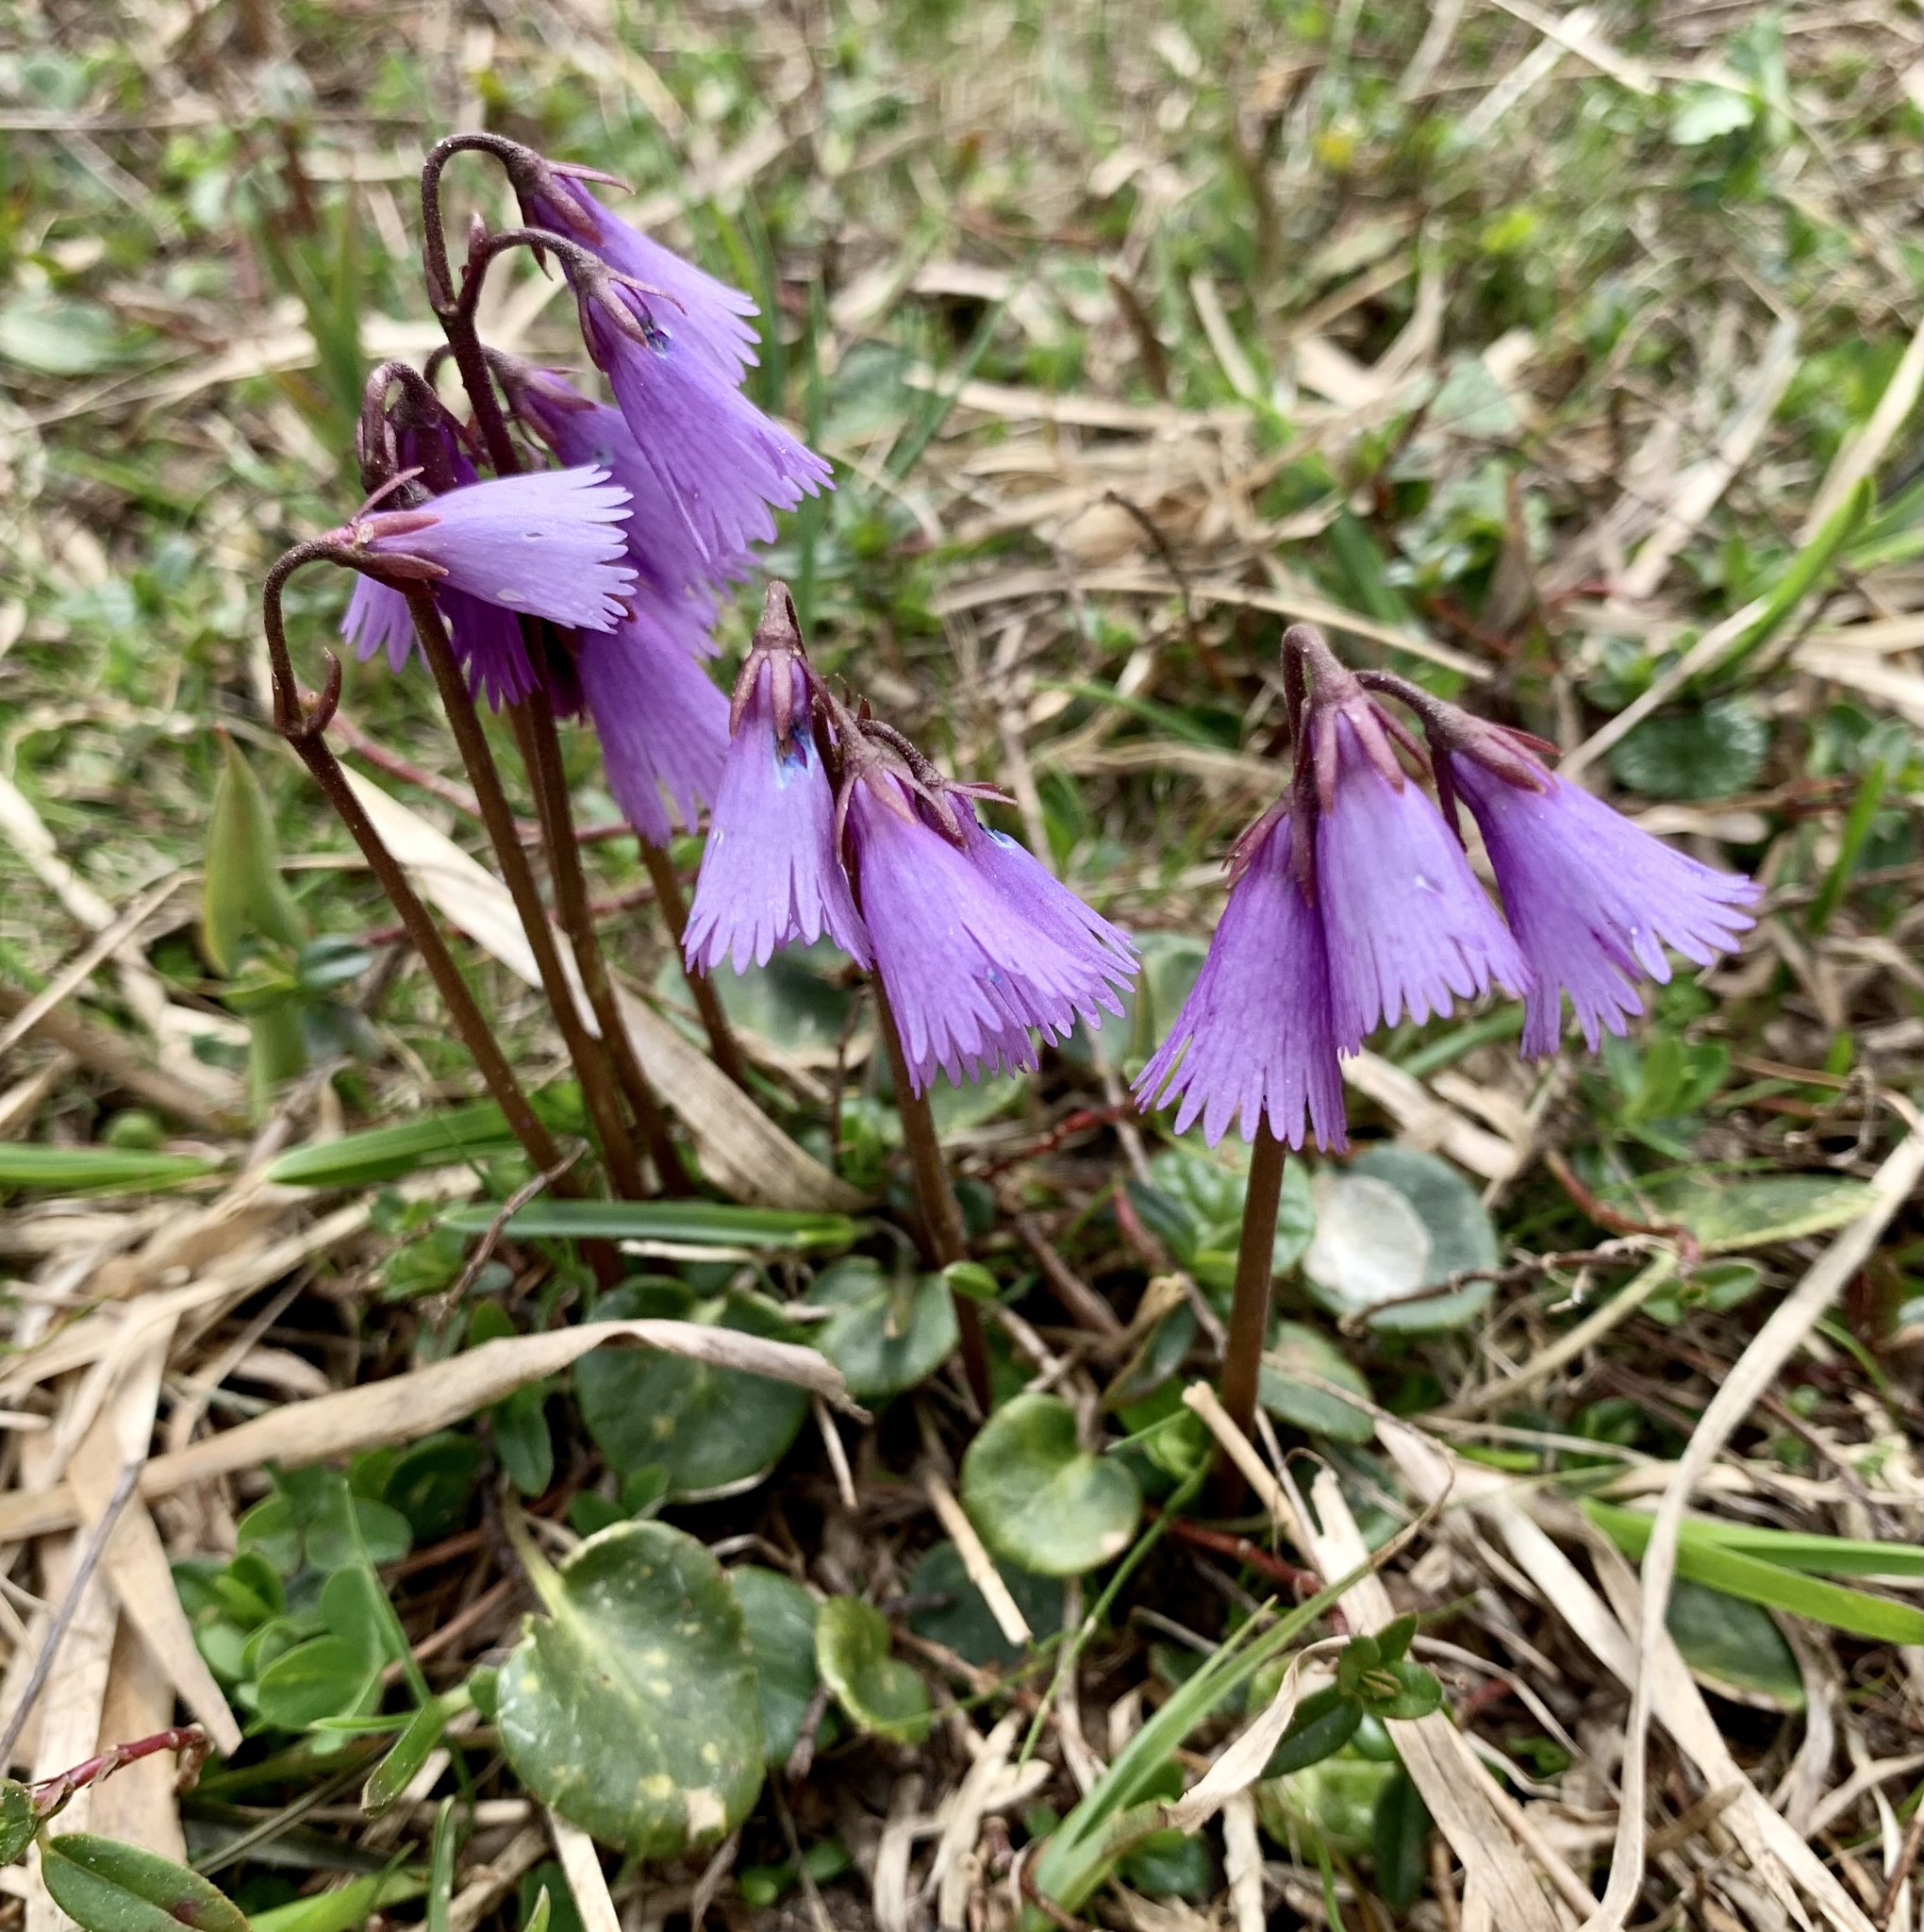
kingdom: Plantae
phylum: Tracheophyta
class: Magnoliopsida
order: Ericales
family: Primulaceae
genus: Soldanella
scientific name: Soldanella alpina
